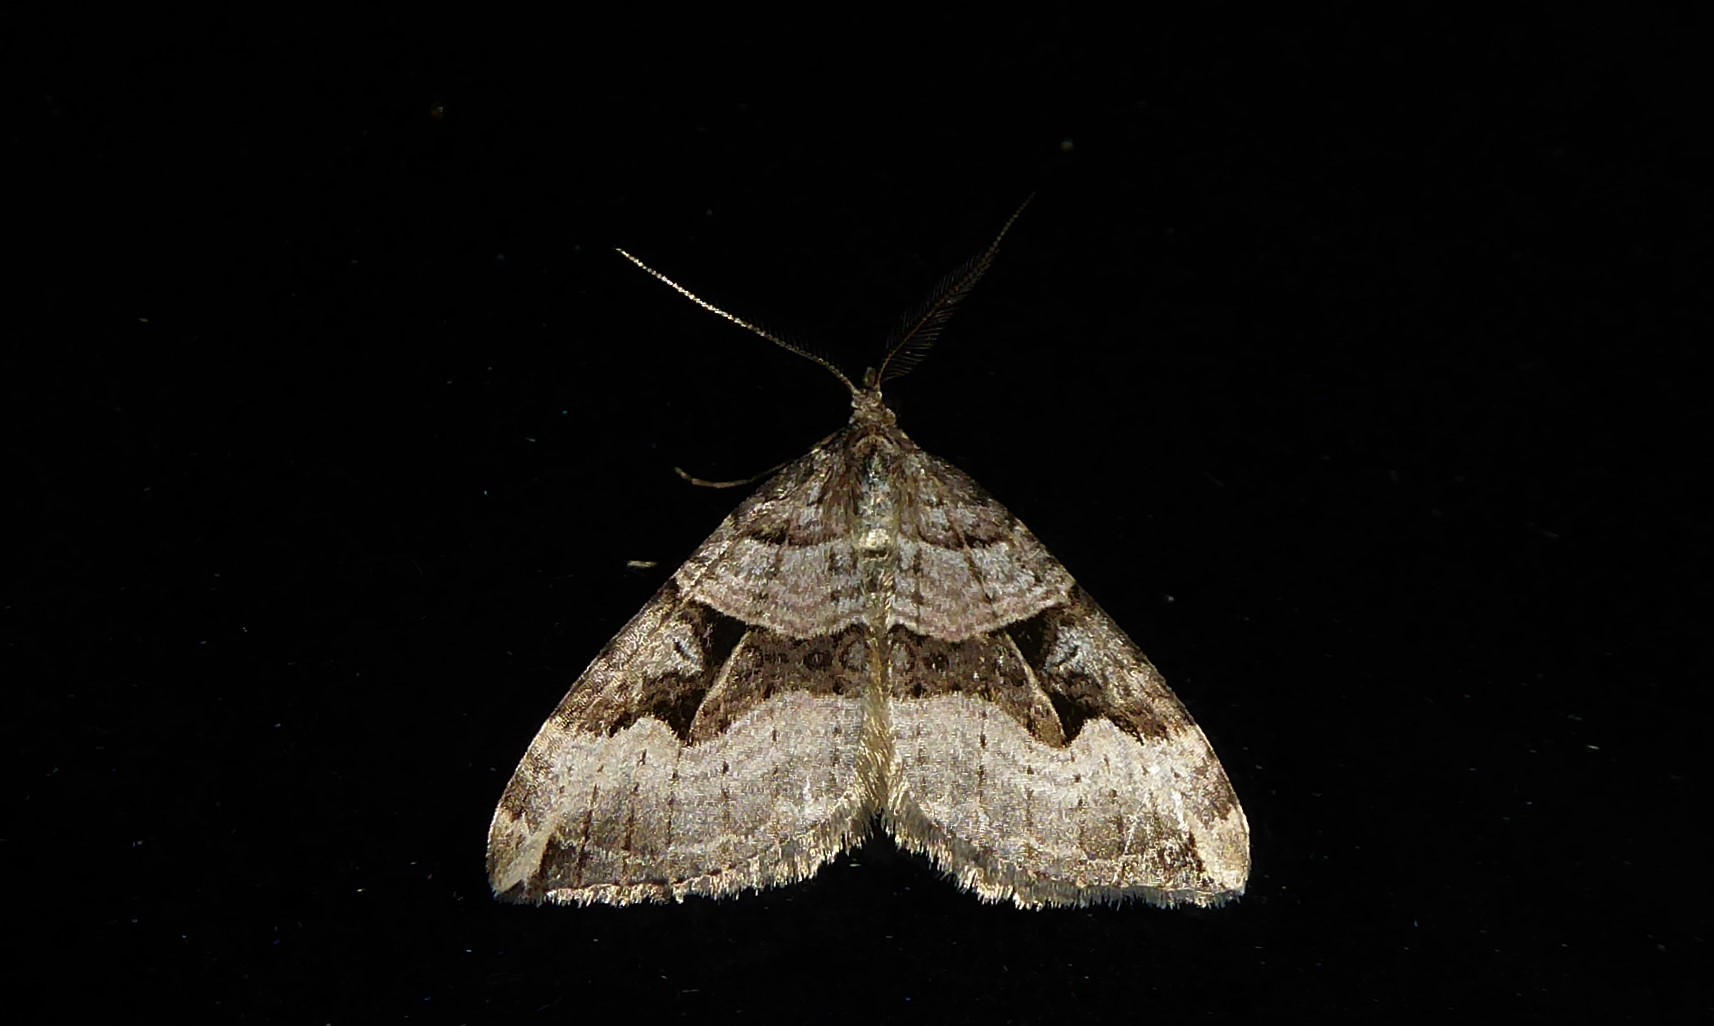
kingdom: Animalia
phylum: Arthropoda
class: Insecta
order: Lepidoptera
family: Geometridae
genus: Xanthorhoe
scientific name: Xanthorhoe semifissata
